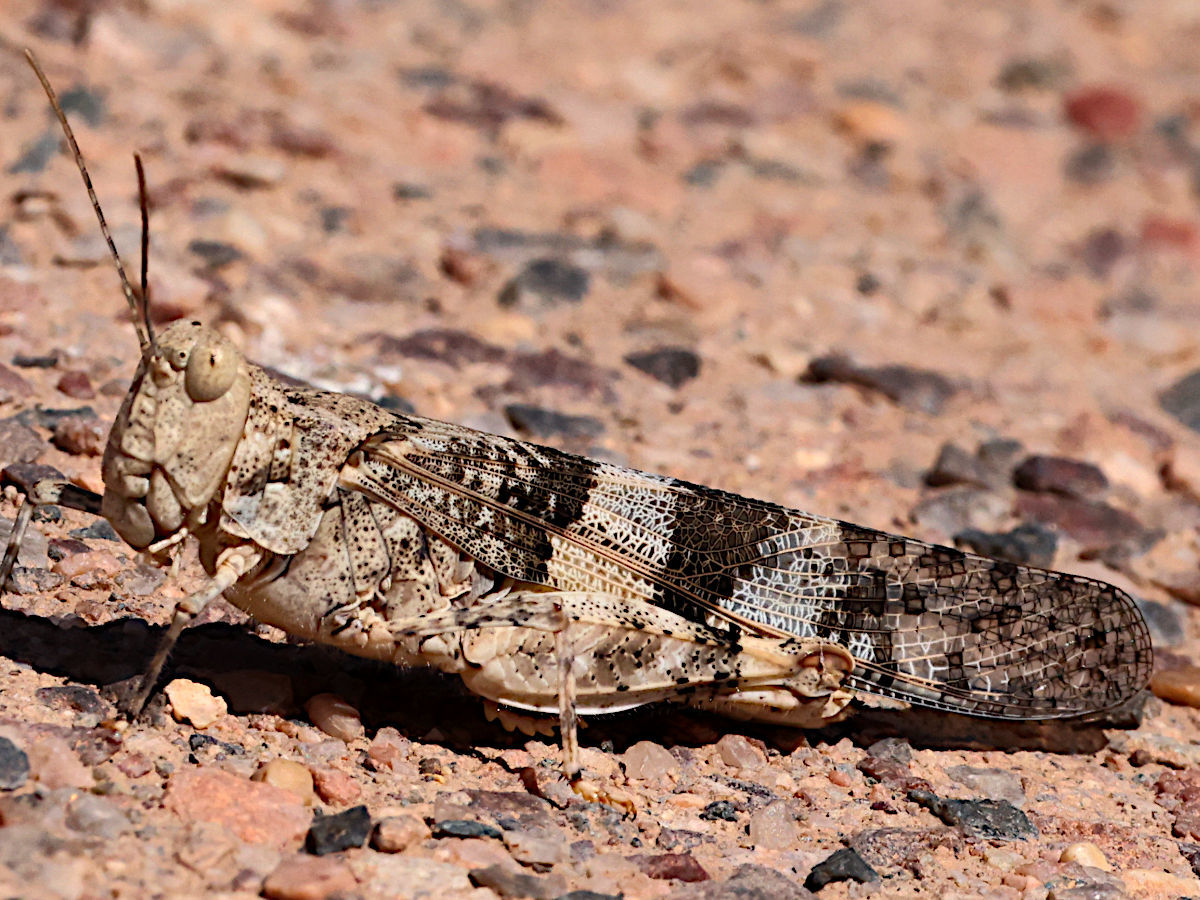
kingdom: Animalia
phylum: Arthropoda
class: Insecta
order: Orthoptera
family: Acrididae
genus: Trimerotropis
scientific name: Trimerotropis pallidipennis
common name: Pallid-winged grasshopper
